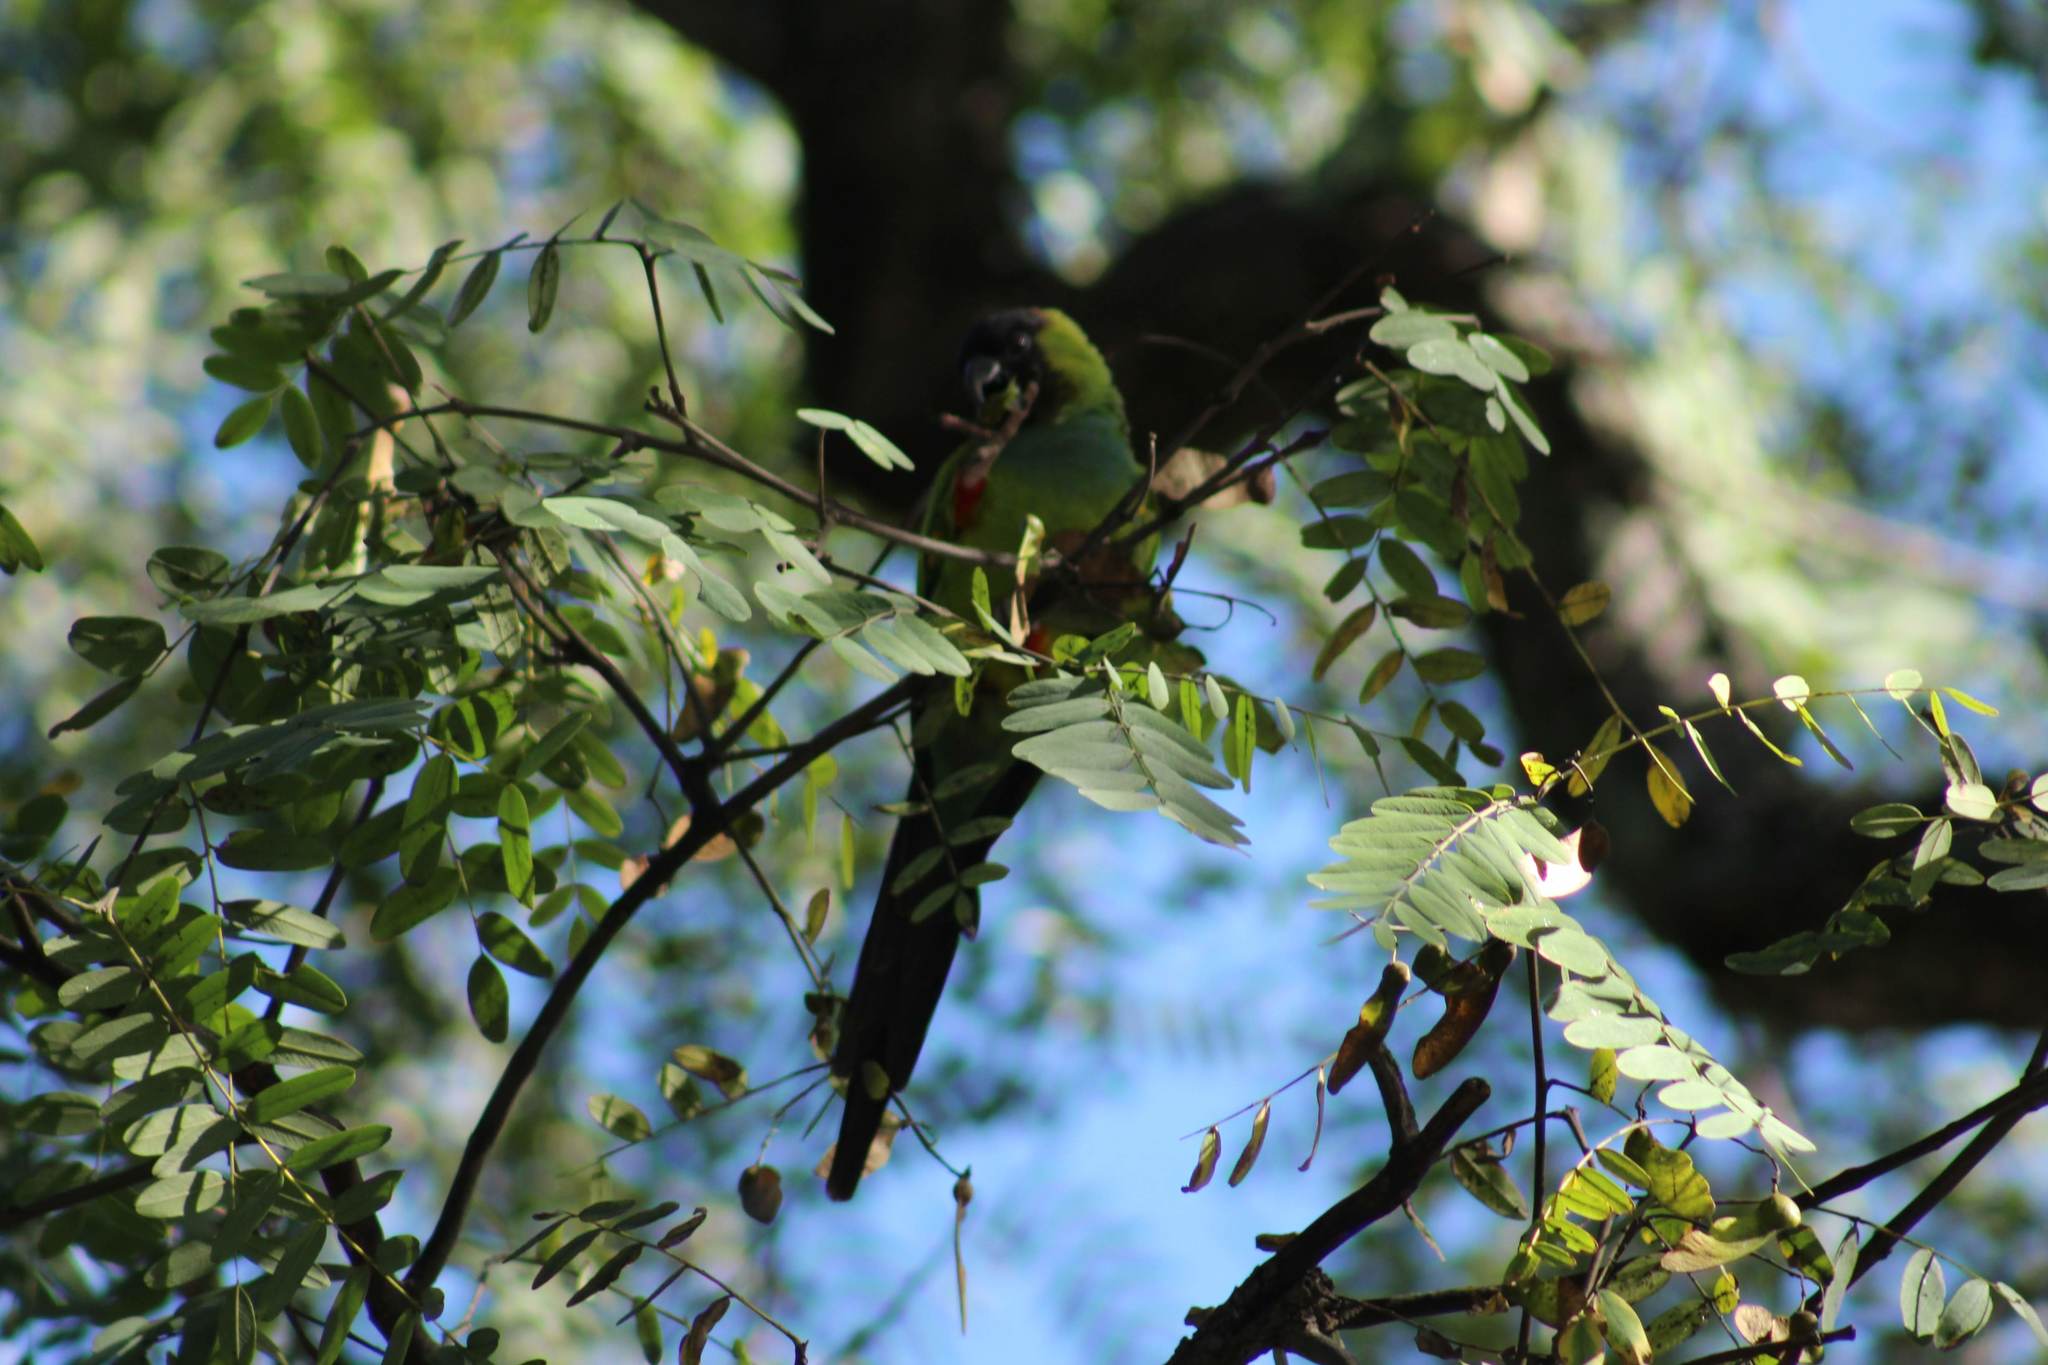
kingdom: Animalia
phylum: Chordata
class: Aves
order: Psittaciformes
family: Psittacidae
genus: Nandayus
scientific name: Nandayus nenday
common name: Nanday parakeet
